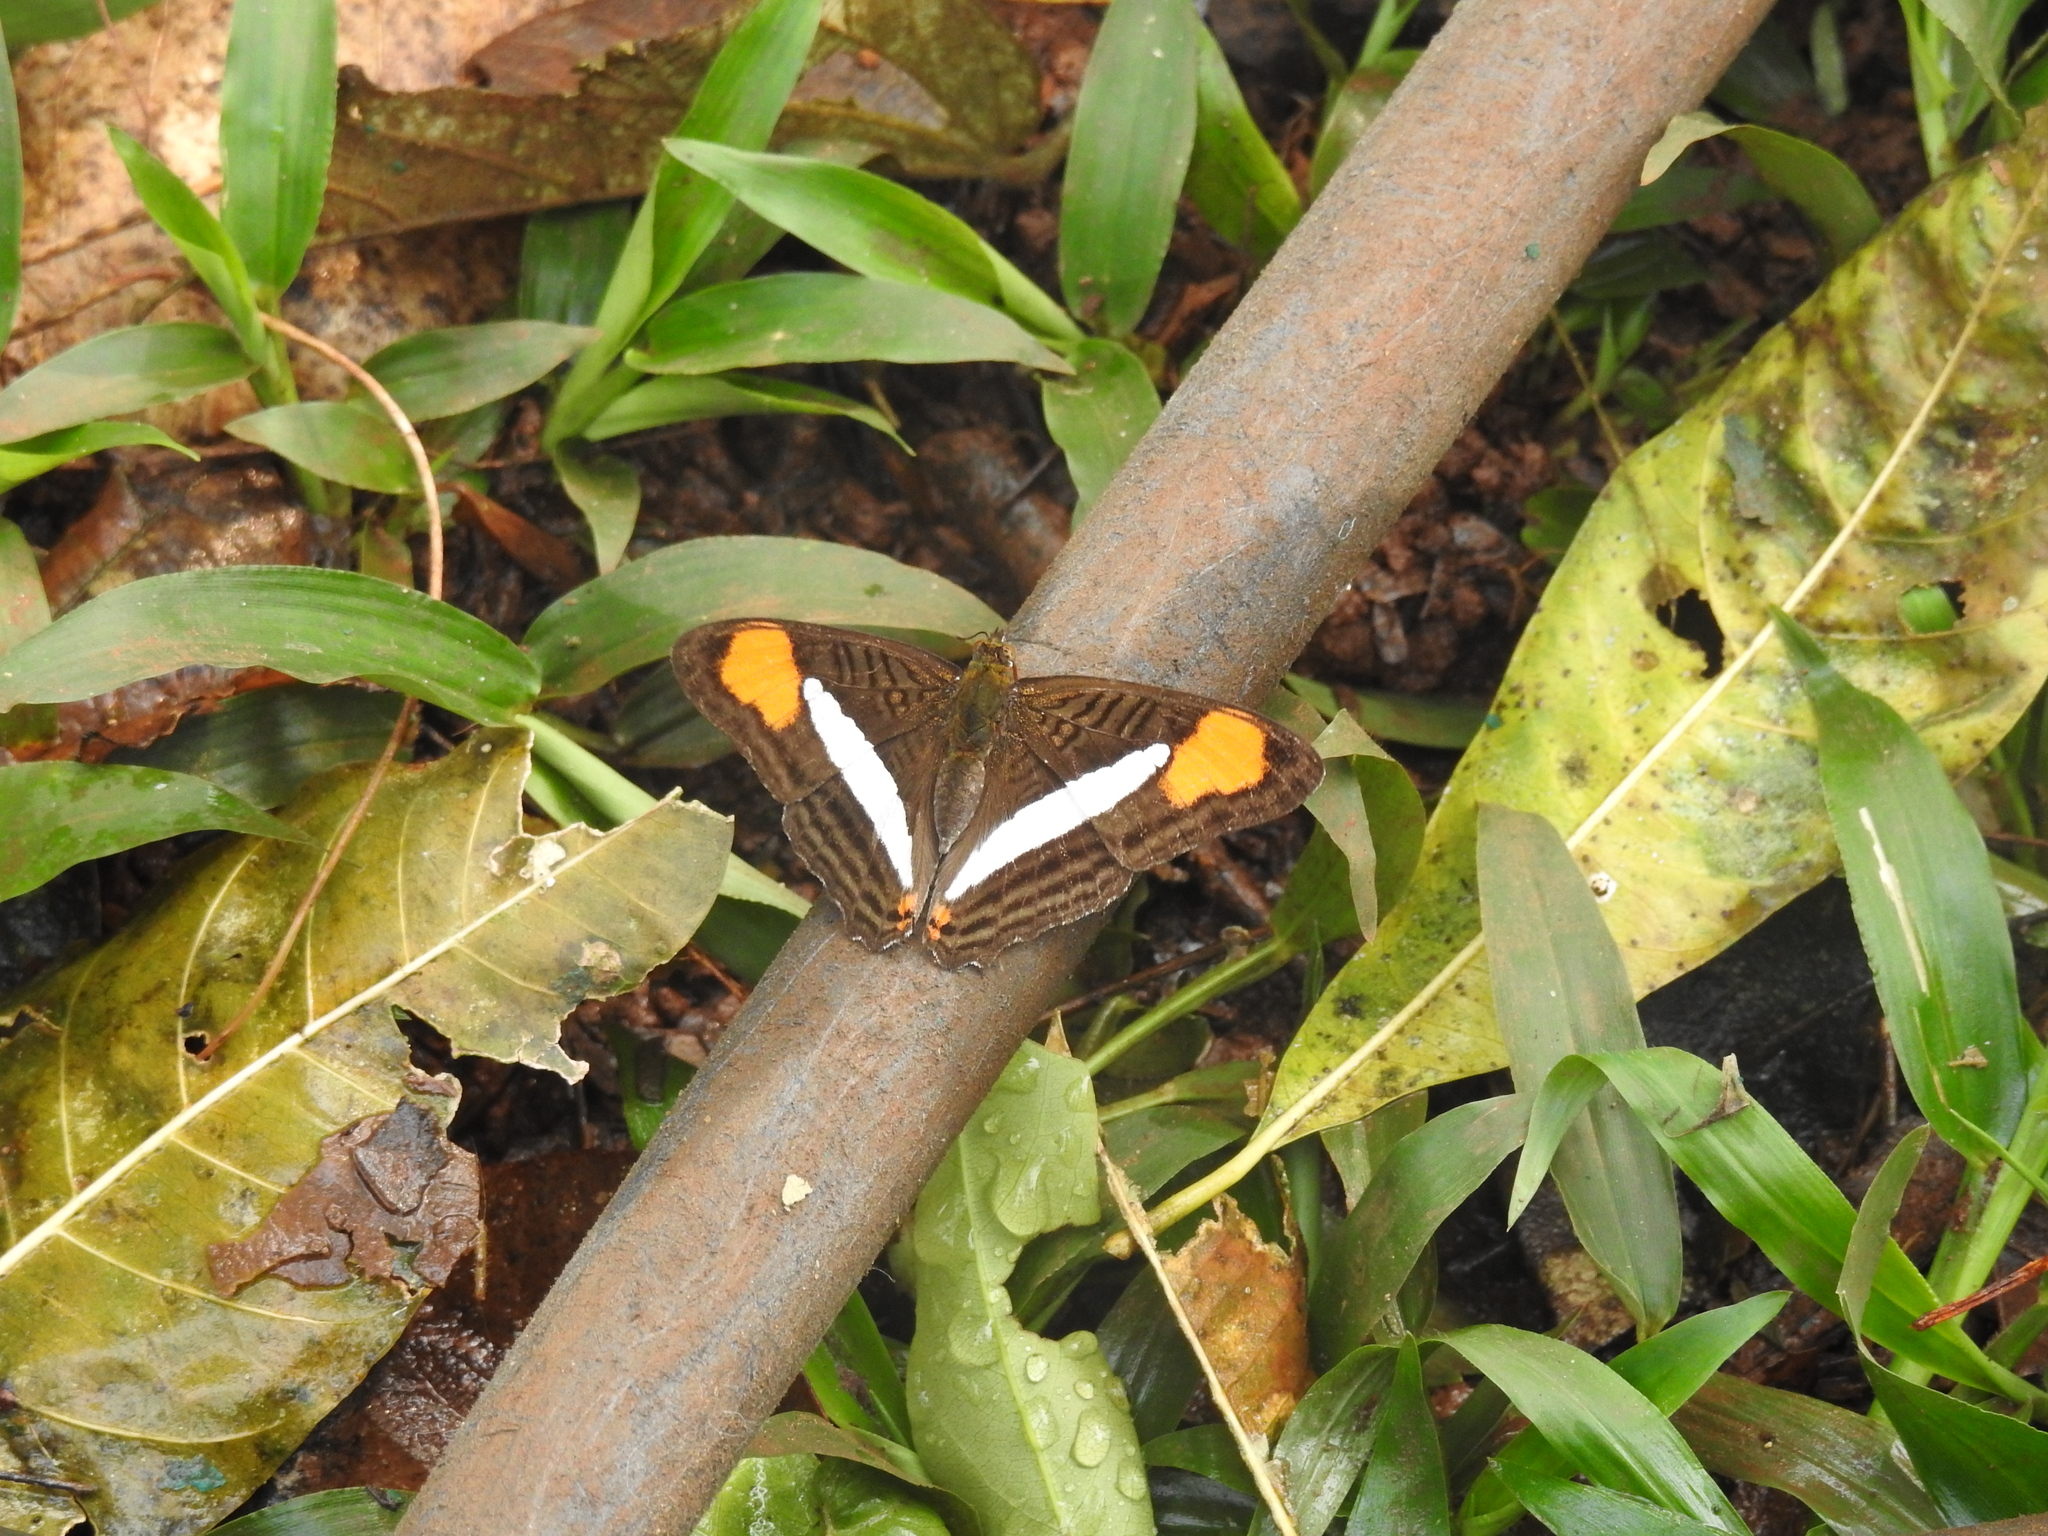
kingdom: Animalia
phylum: Arthropoda
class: Insecta
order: Lepidoptera
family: Nymphalidae
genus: Limenitis
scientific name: Limenitis thessalia
